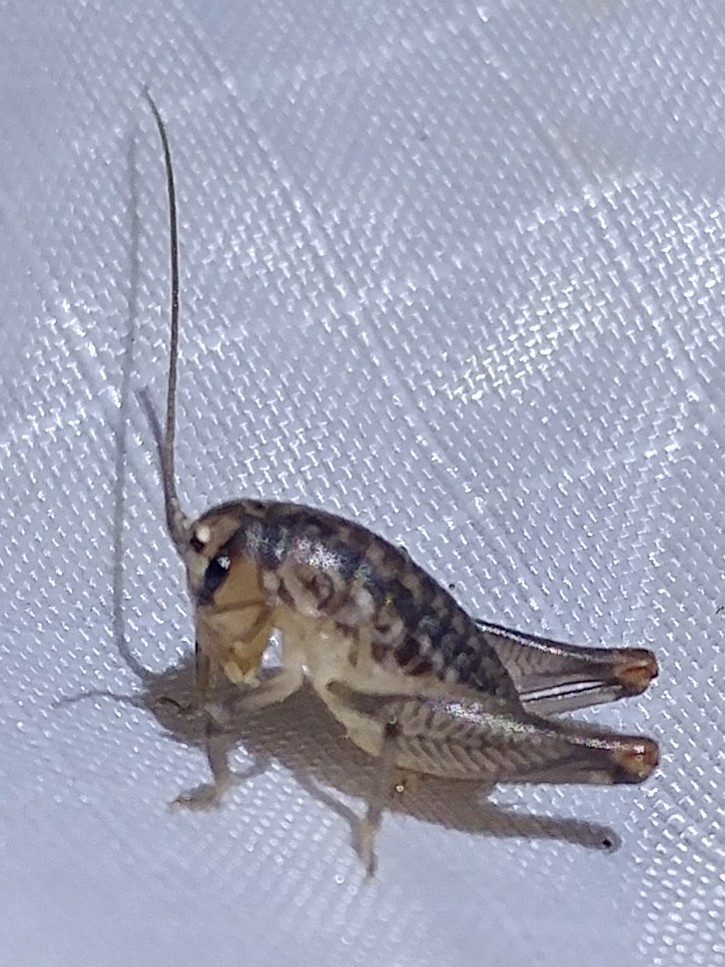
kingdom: Animalia
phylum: Arthropoda
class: Insecta
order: Orthoptera
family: Anostostomatidae
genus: Cnemotettix
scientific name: Cnemotettix bifasciatus
